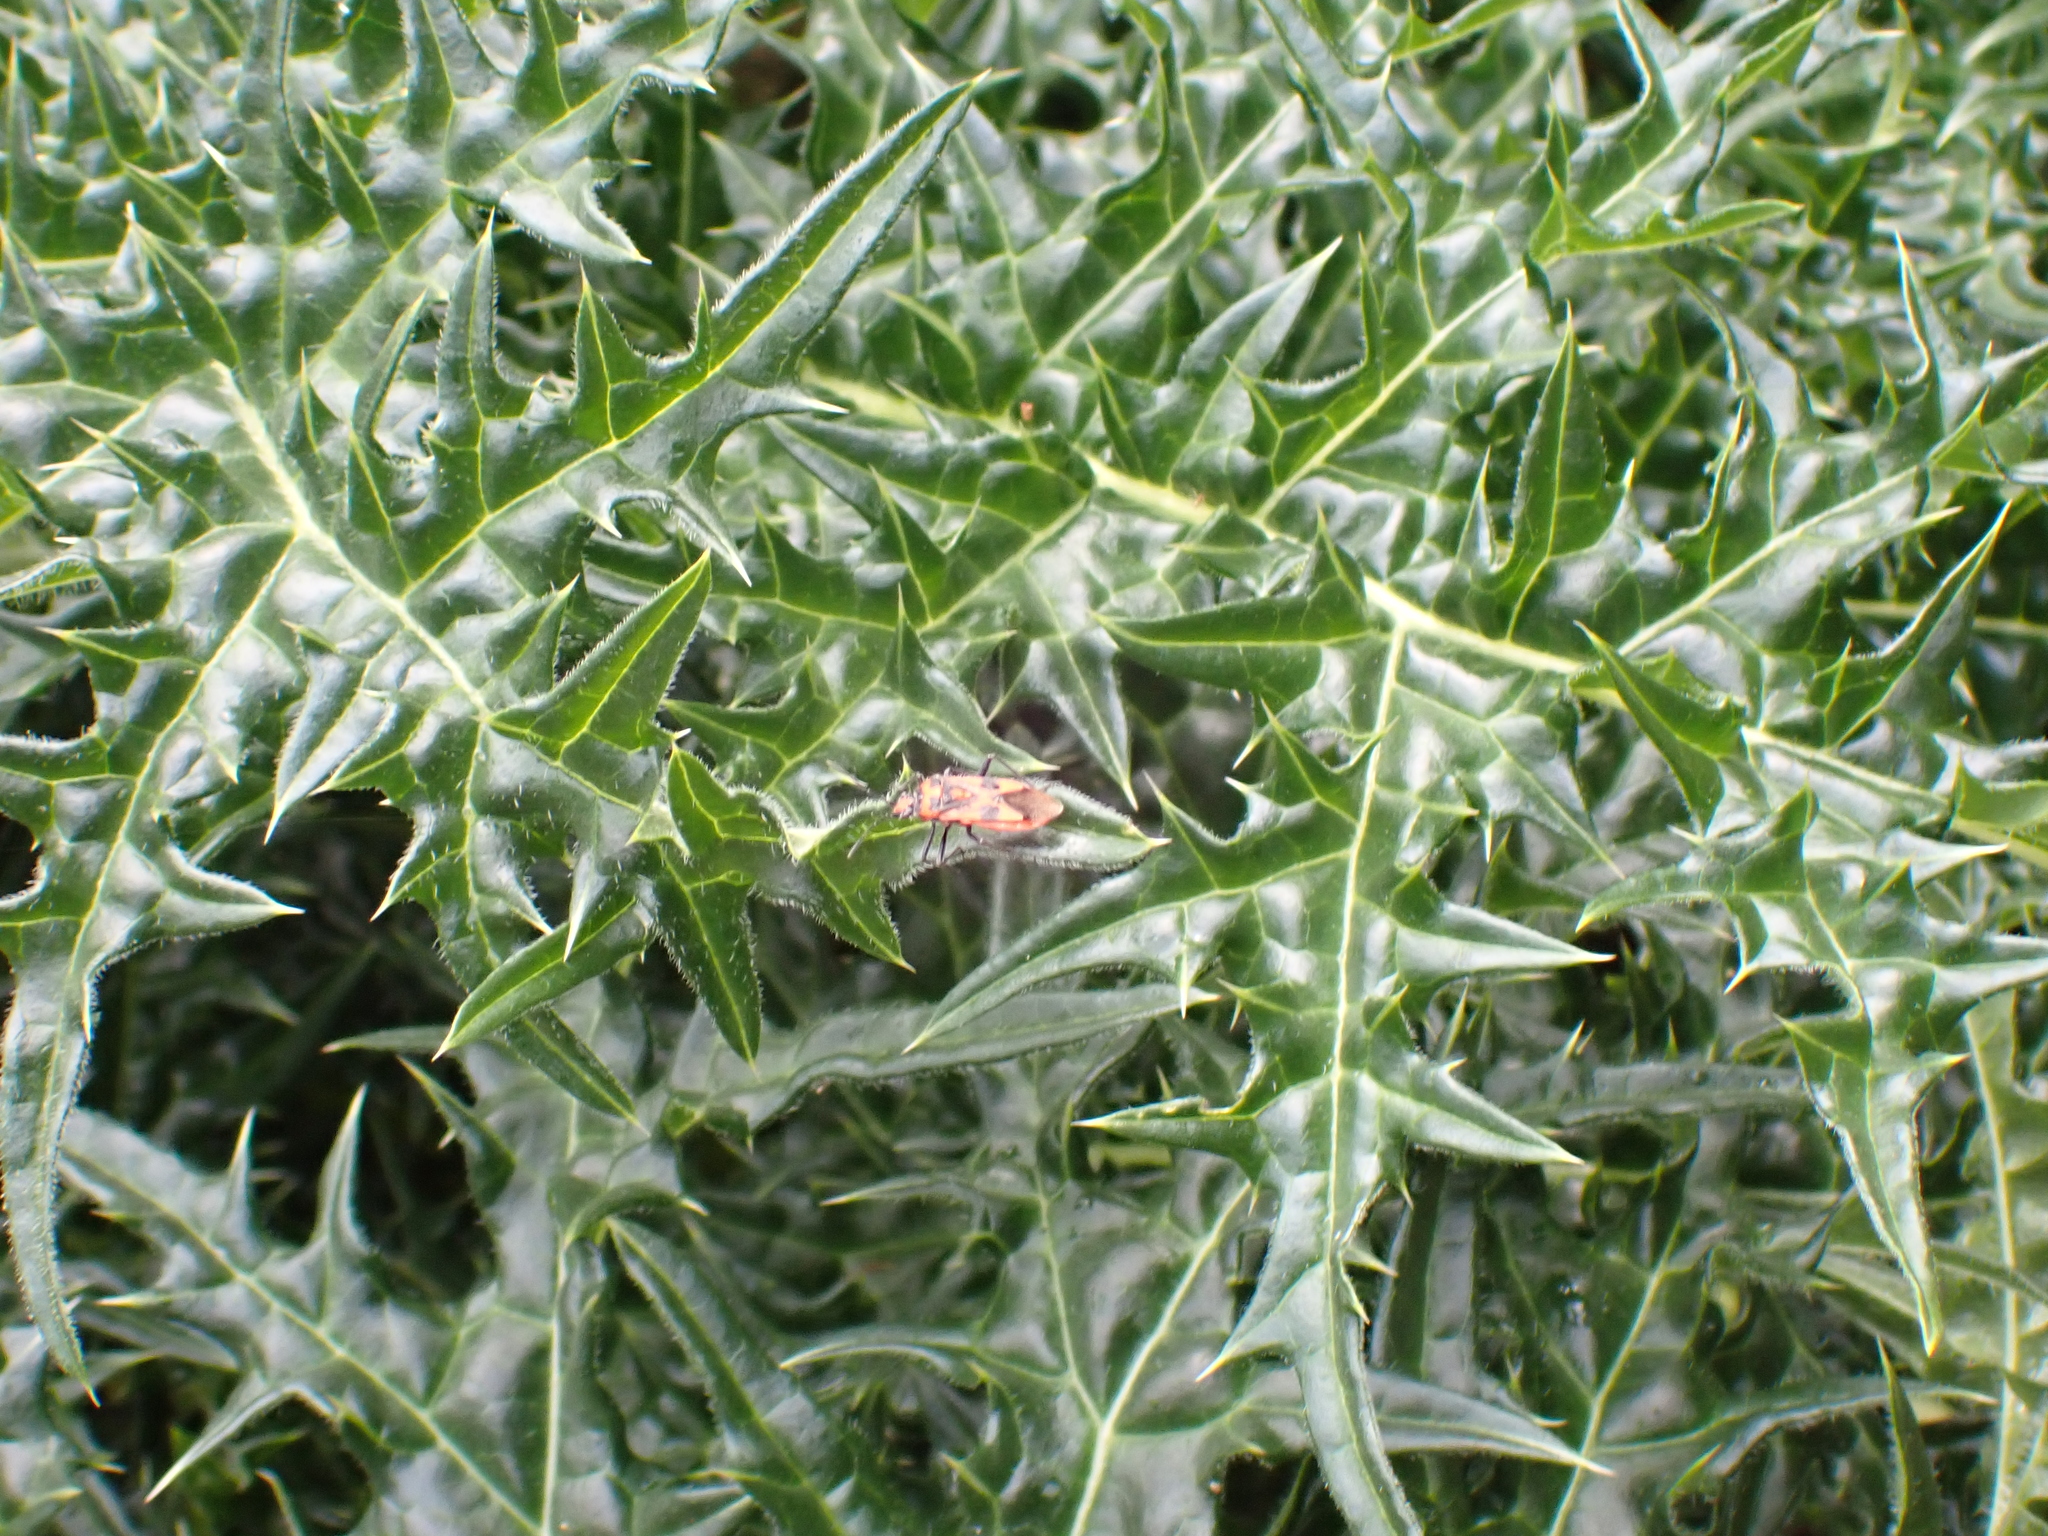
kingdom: Animalia
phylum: Arthropoda
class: Insecta
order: Hemiptera
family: Rhopalidae
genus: Corizus
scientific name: Corizus hyoscyami
